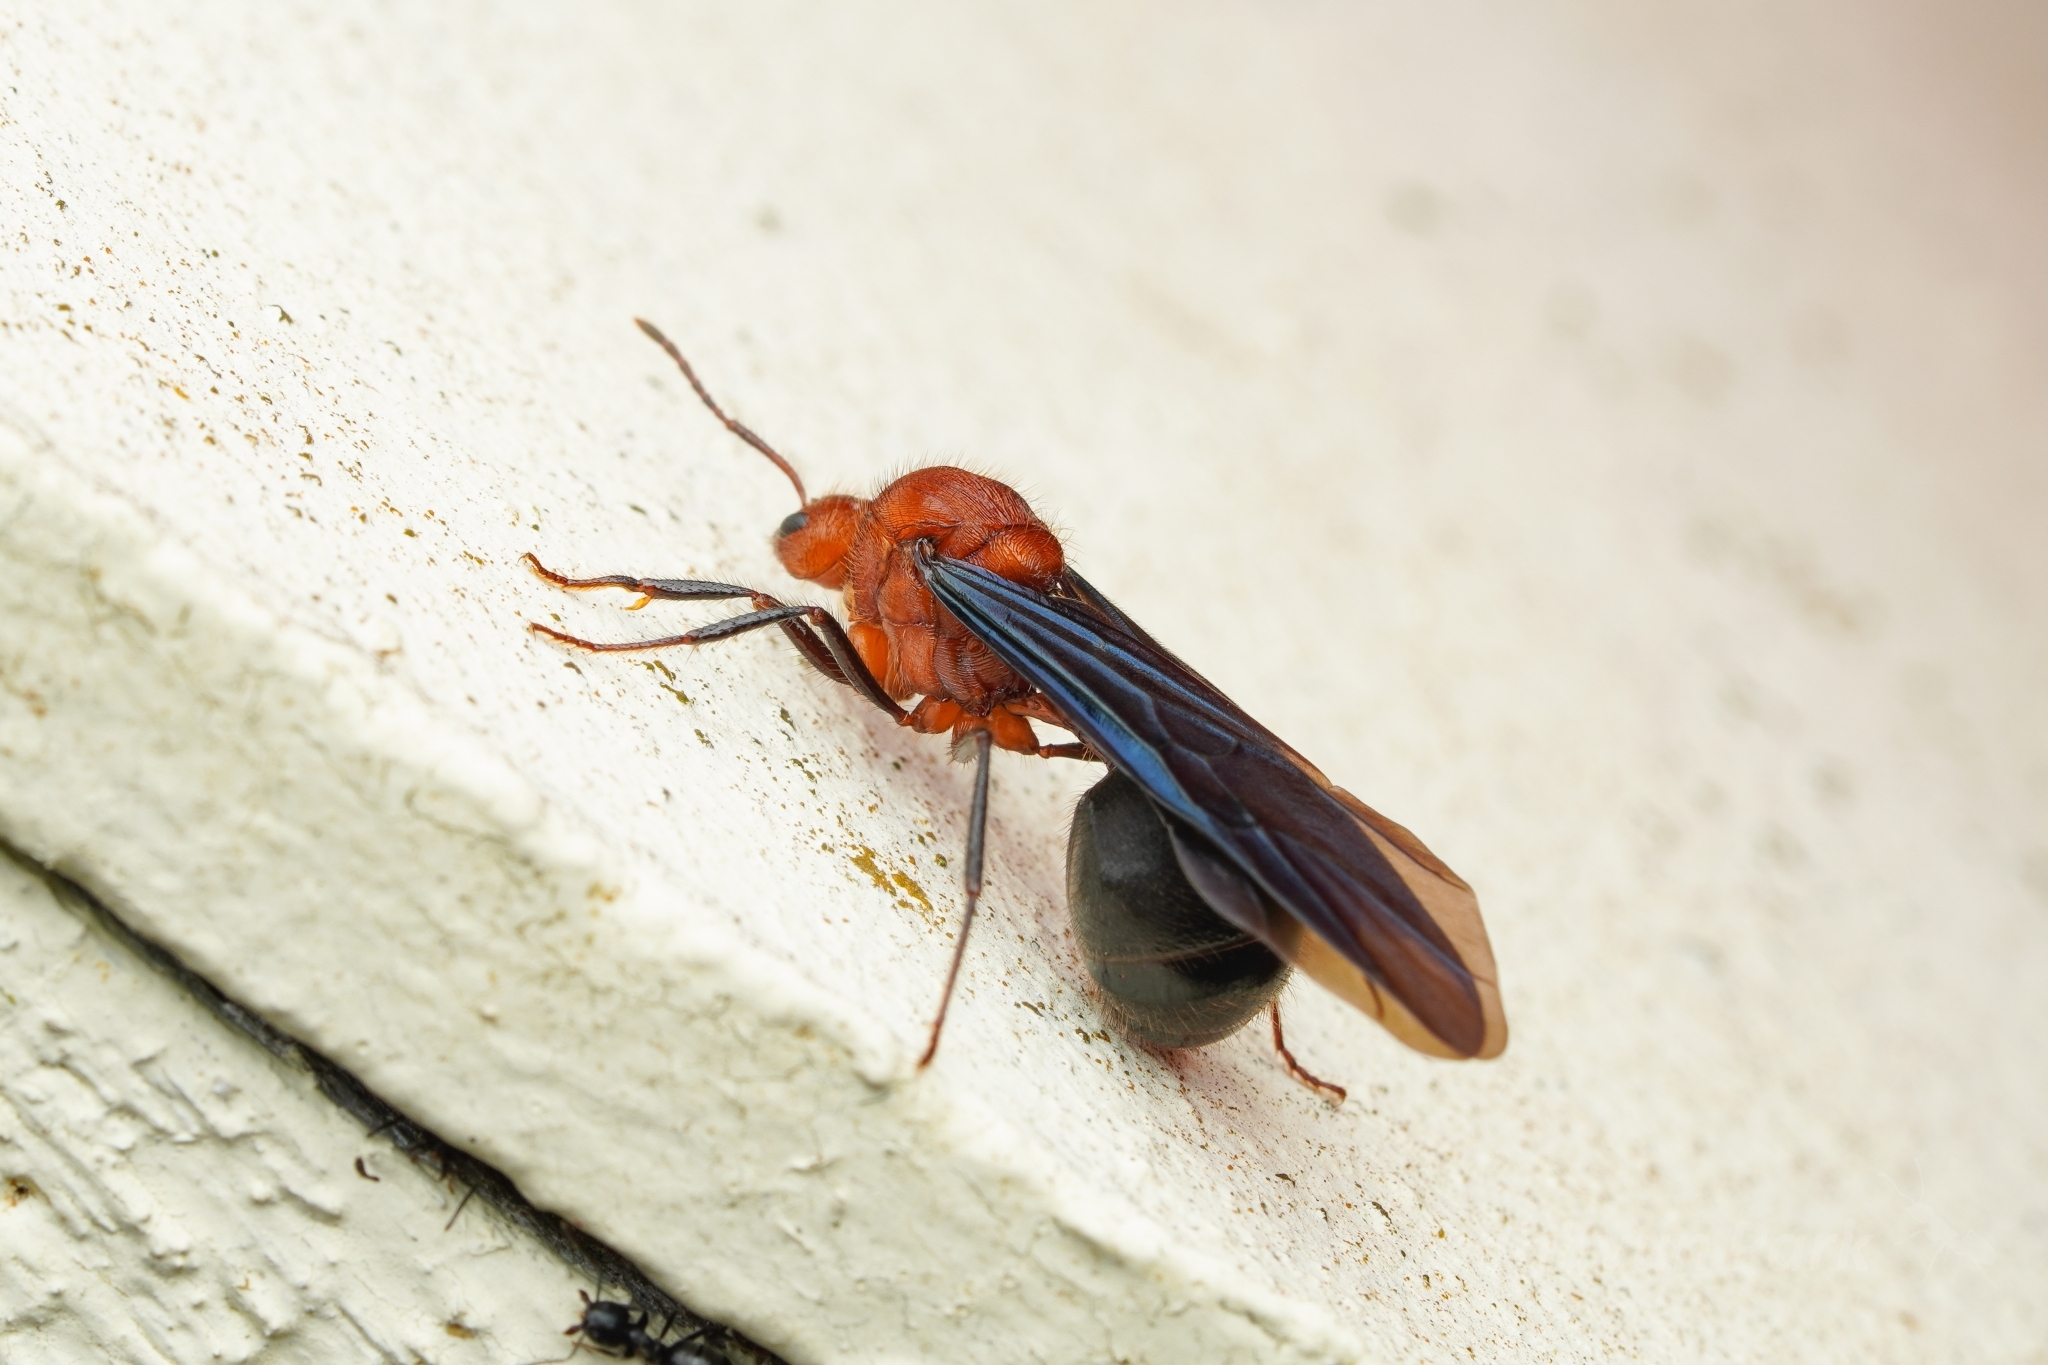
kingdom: Animalia
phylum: Arthropoda
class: Insecta
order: Hymenoptera
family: Formicidae
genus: Myrmicaria
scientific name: Myrmicaria
